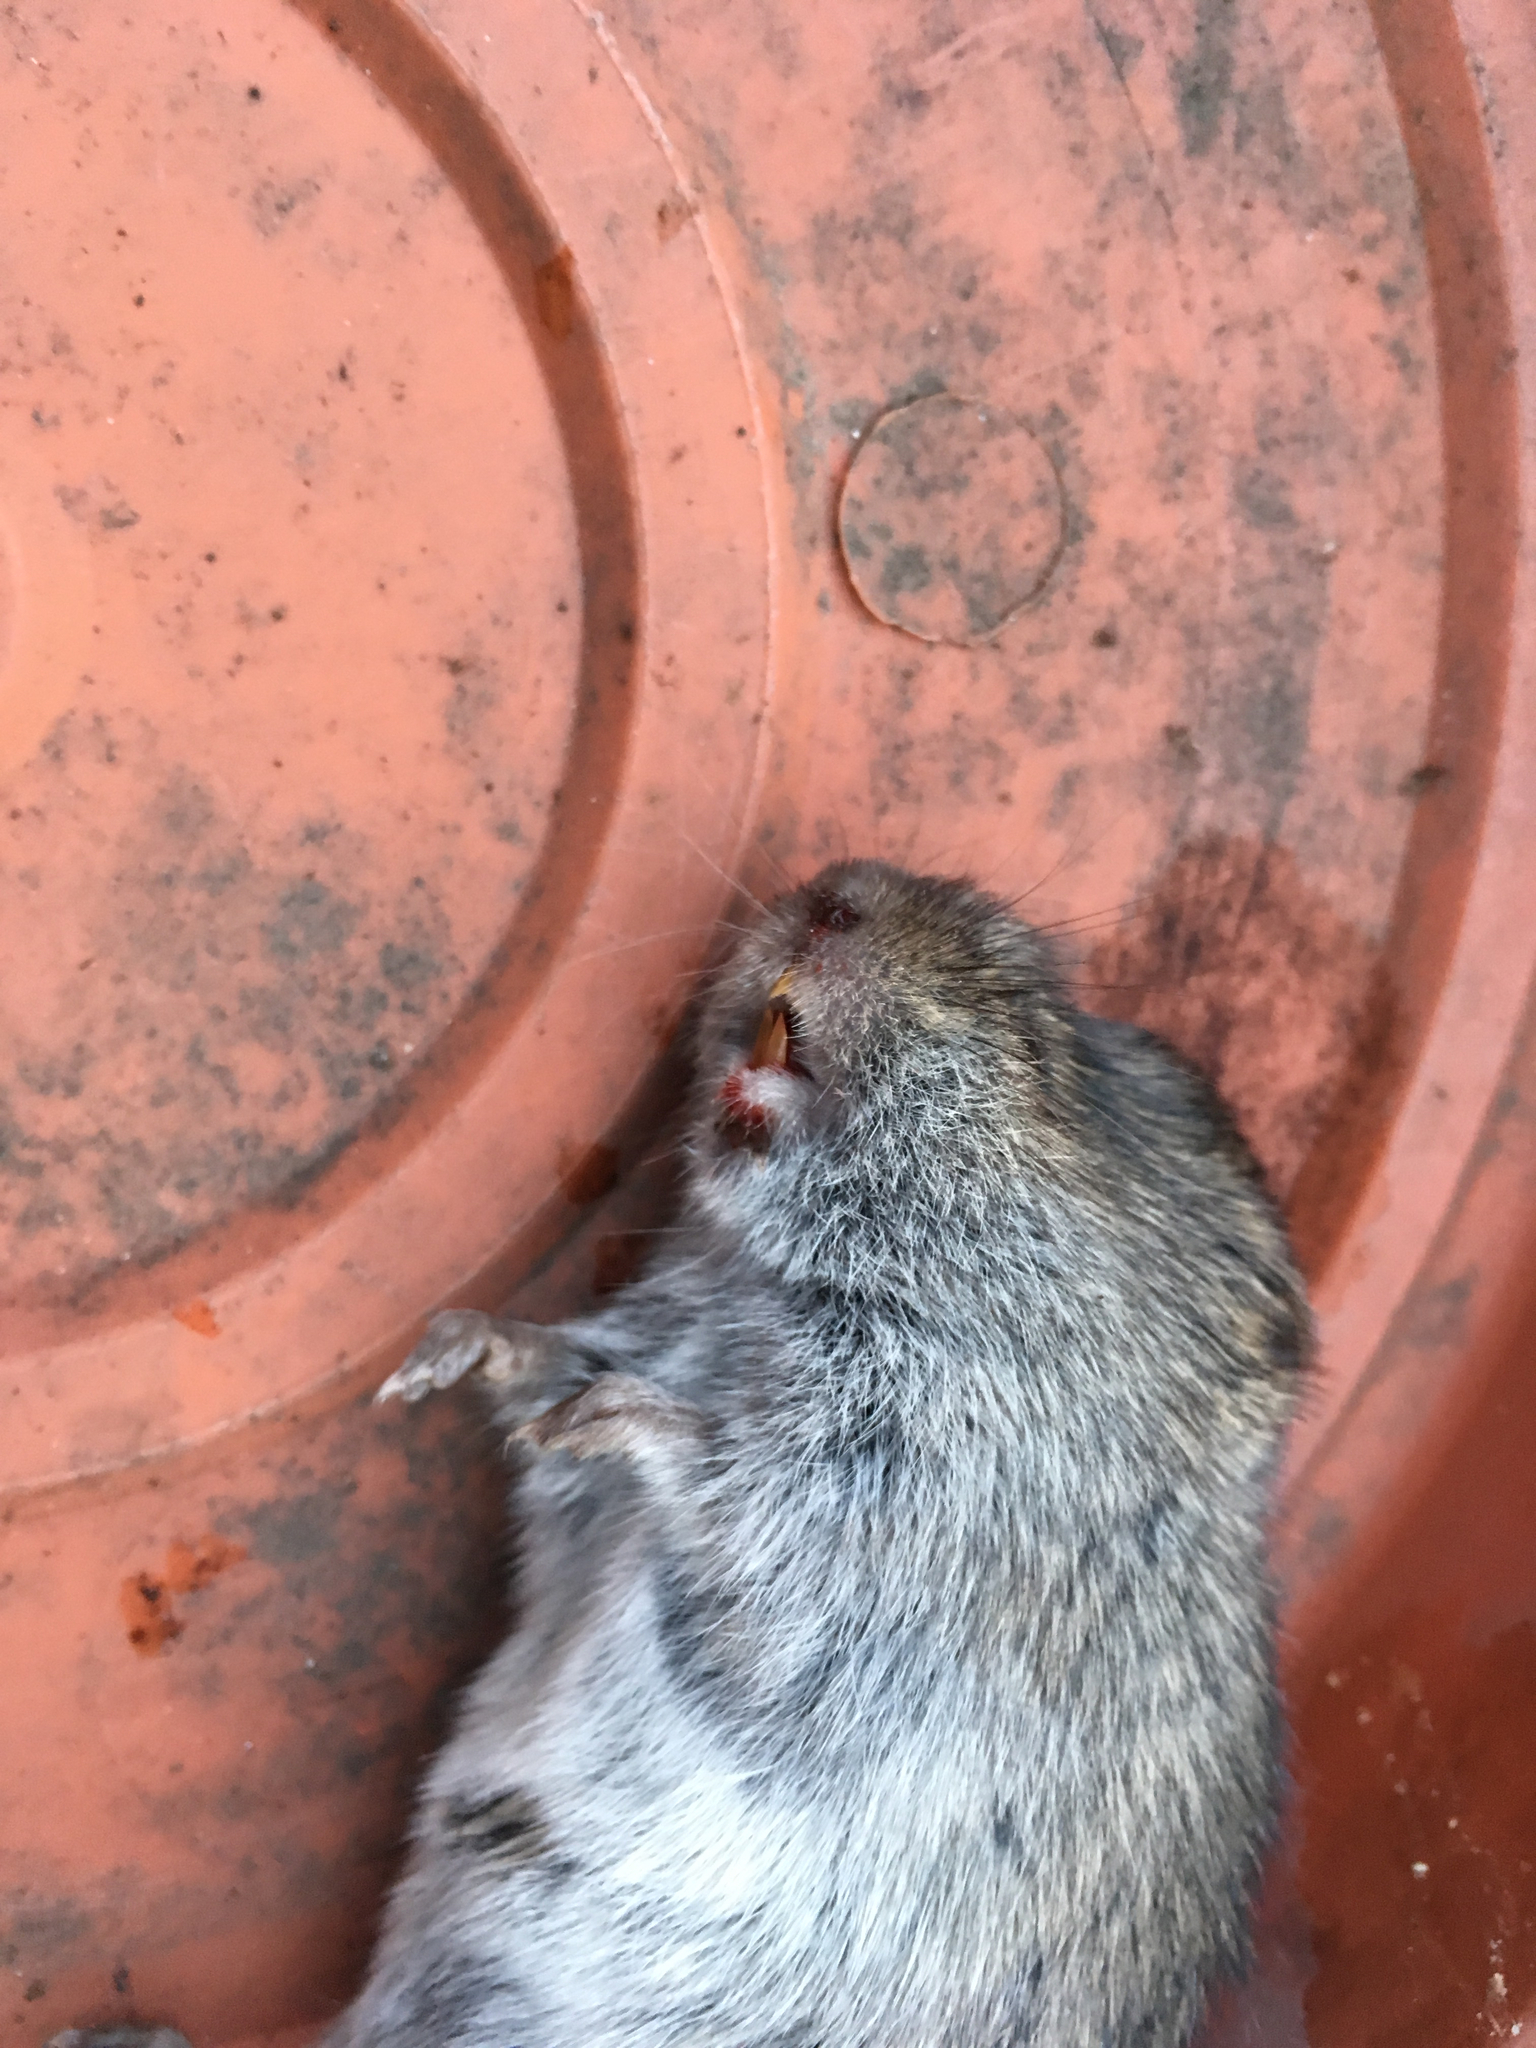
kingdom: Animalia
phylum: Chordata
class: Mammalia
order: Rodentia
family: Cricetidae
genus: Microtus
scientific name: Microtus pennsylvanicus
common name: Meadow vole
